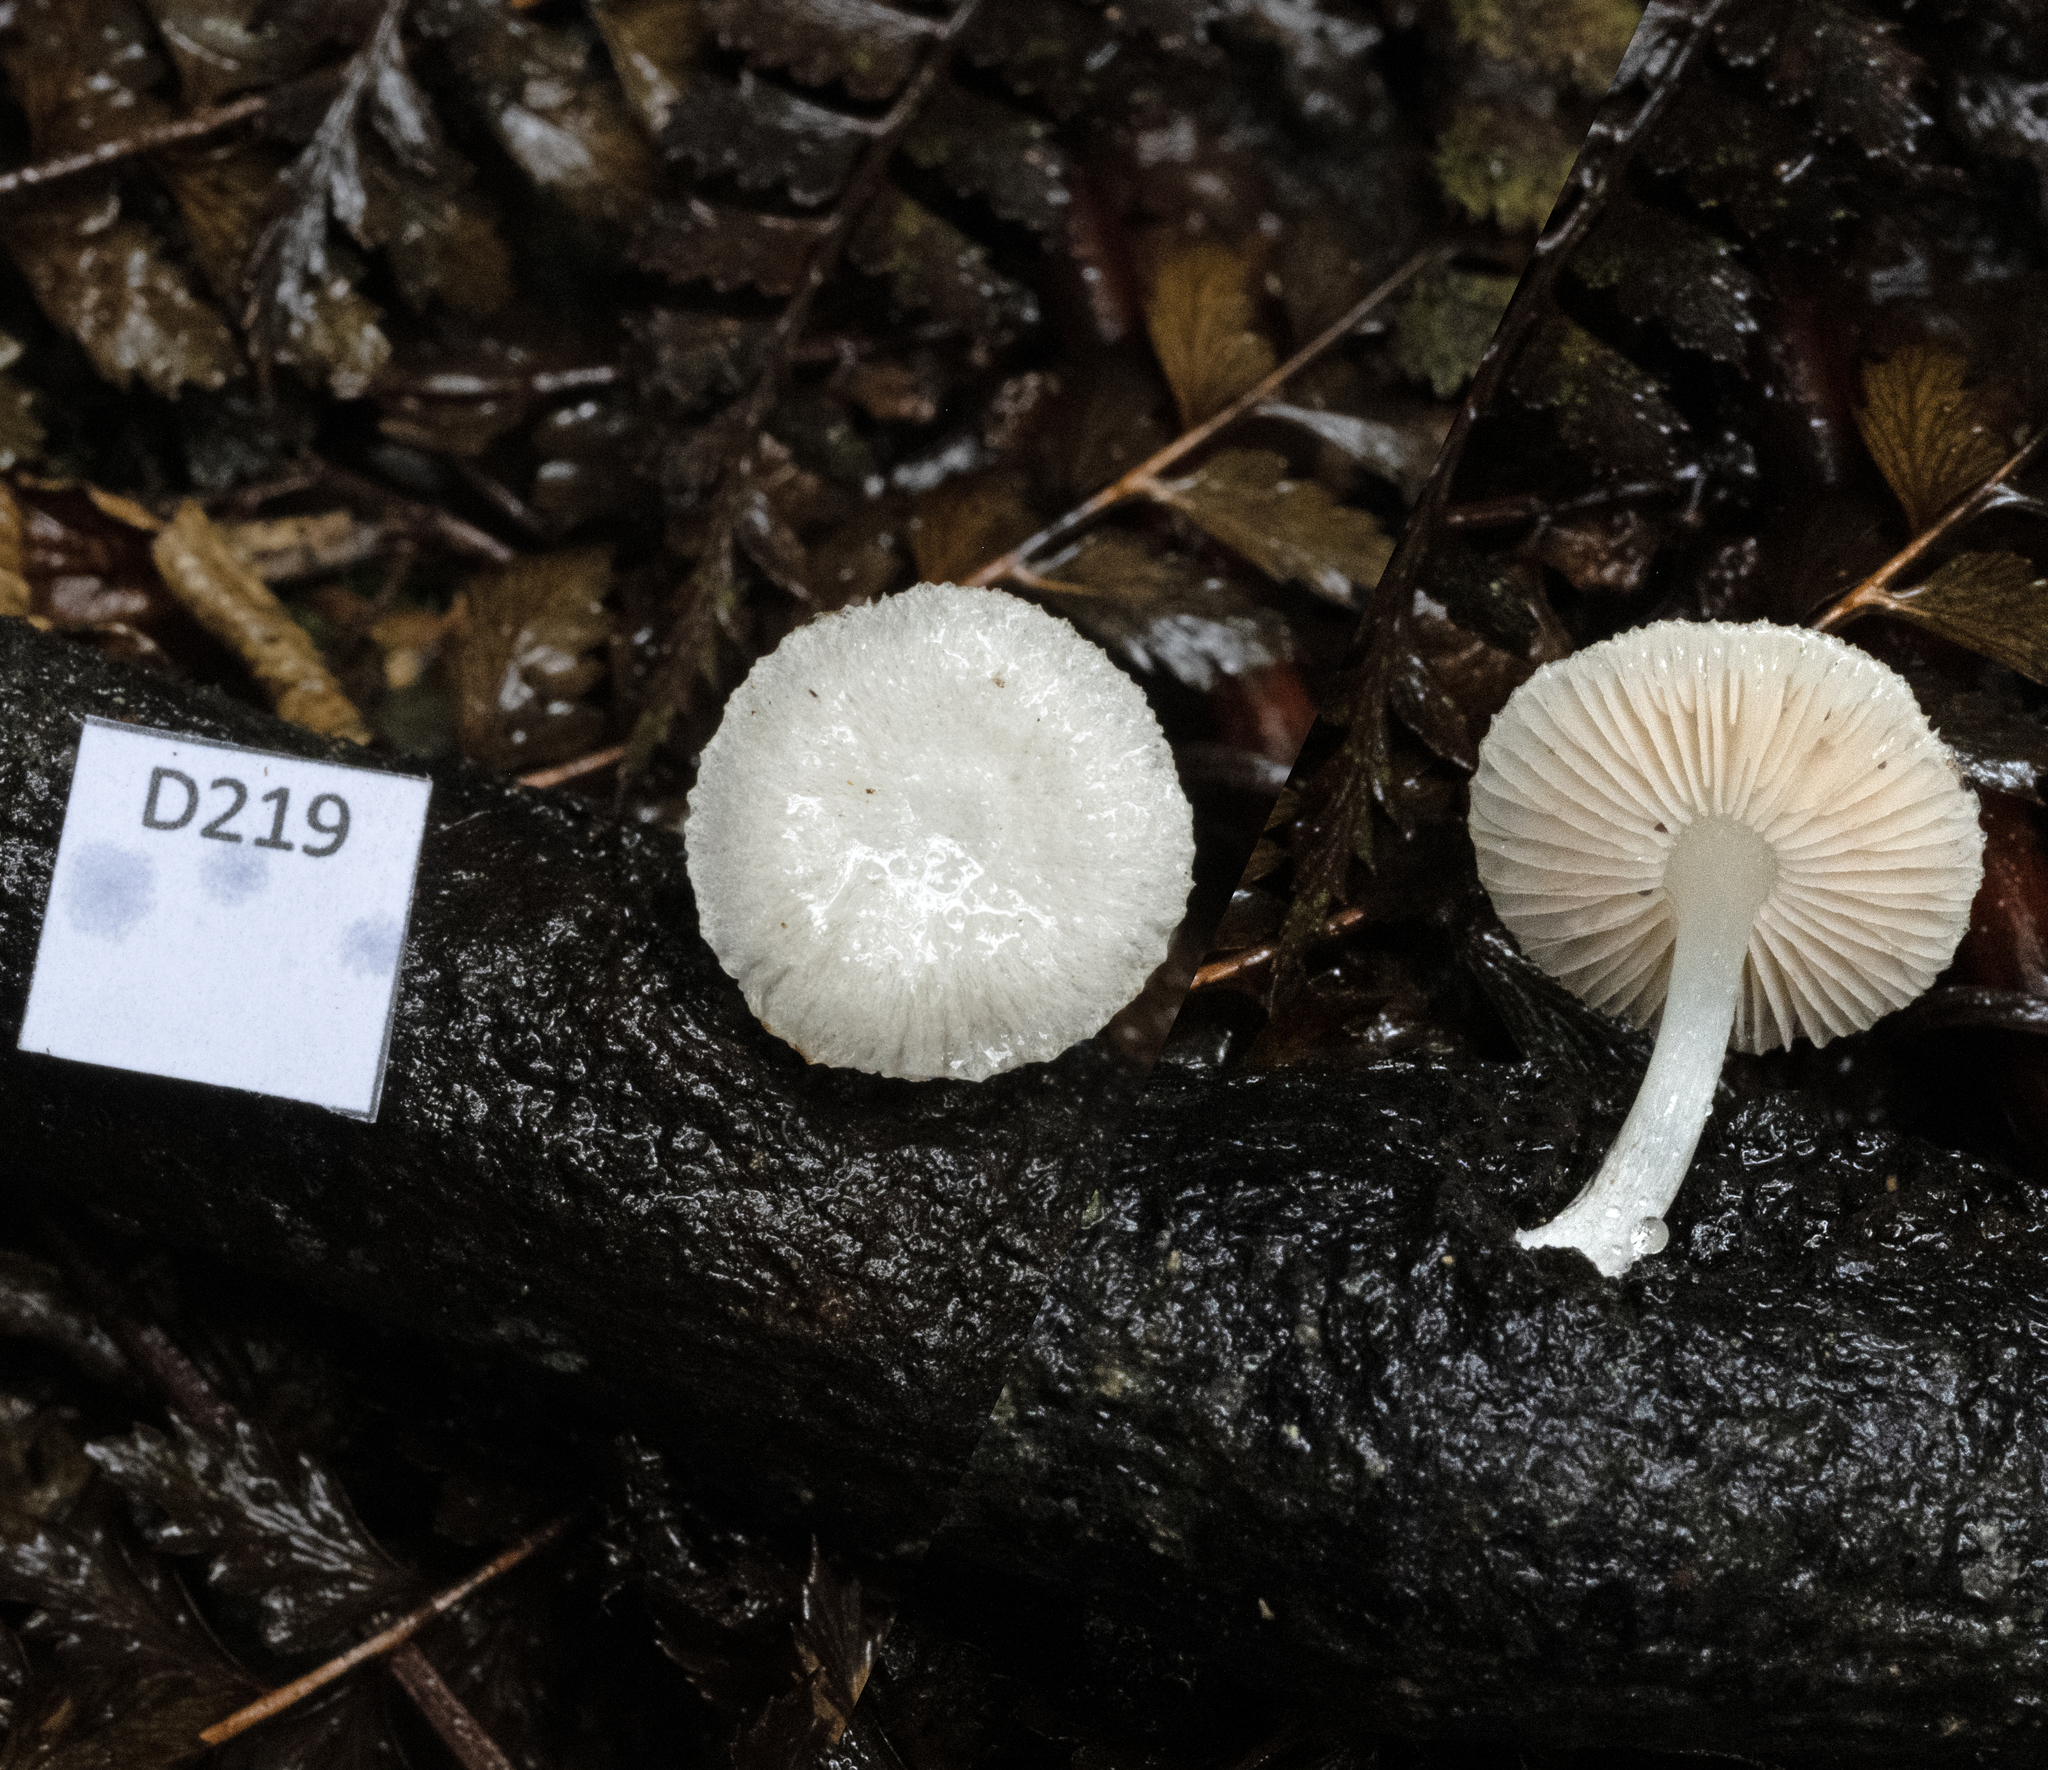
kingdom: Fungi
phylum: Basidiomycota
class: Agaricomycetes
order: Agaricales
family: Pluteaceae
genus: Pluteus
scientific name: Pluteus hispidilacteus
